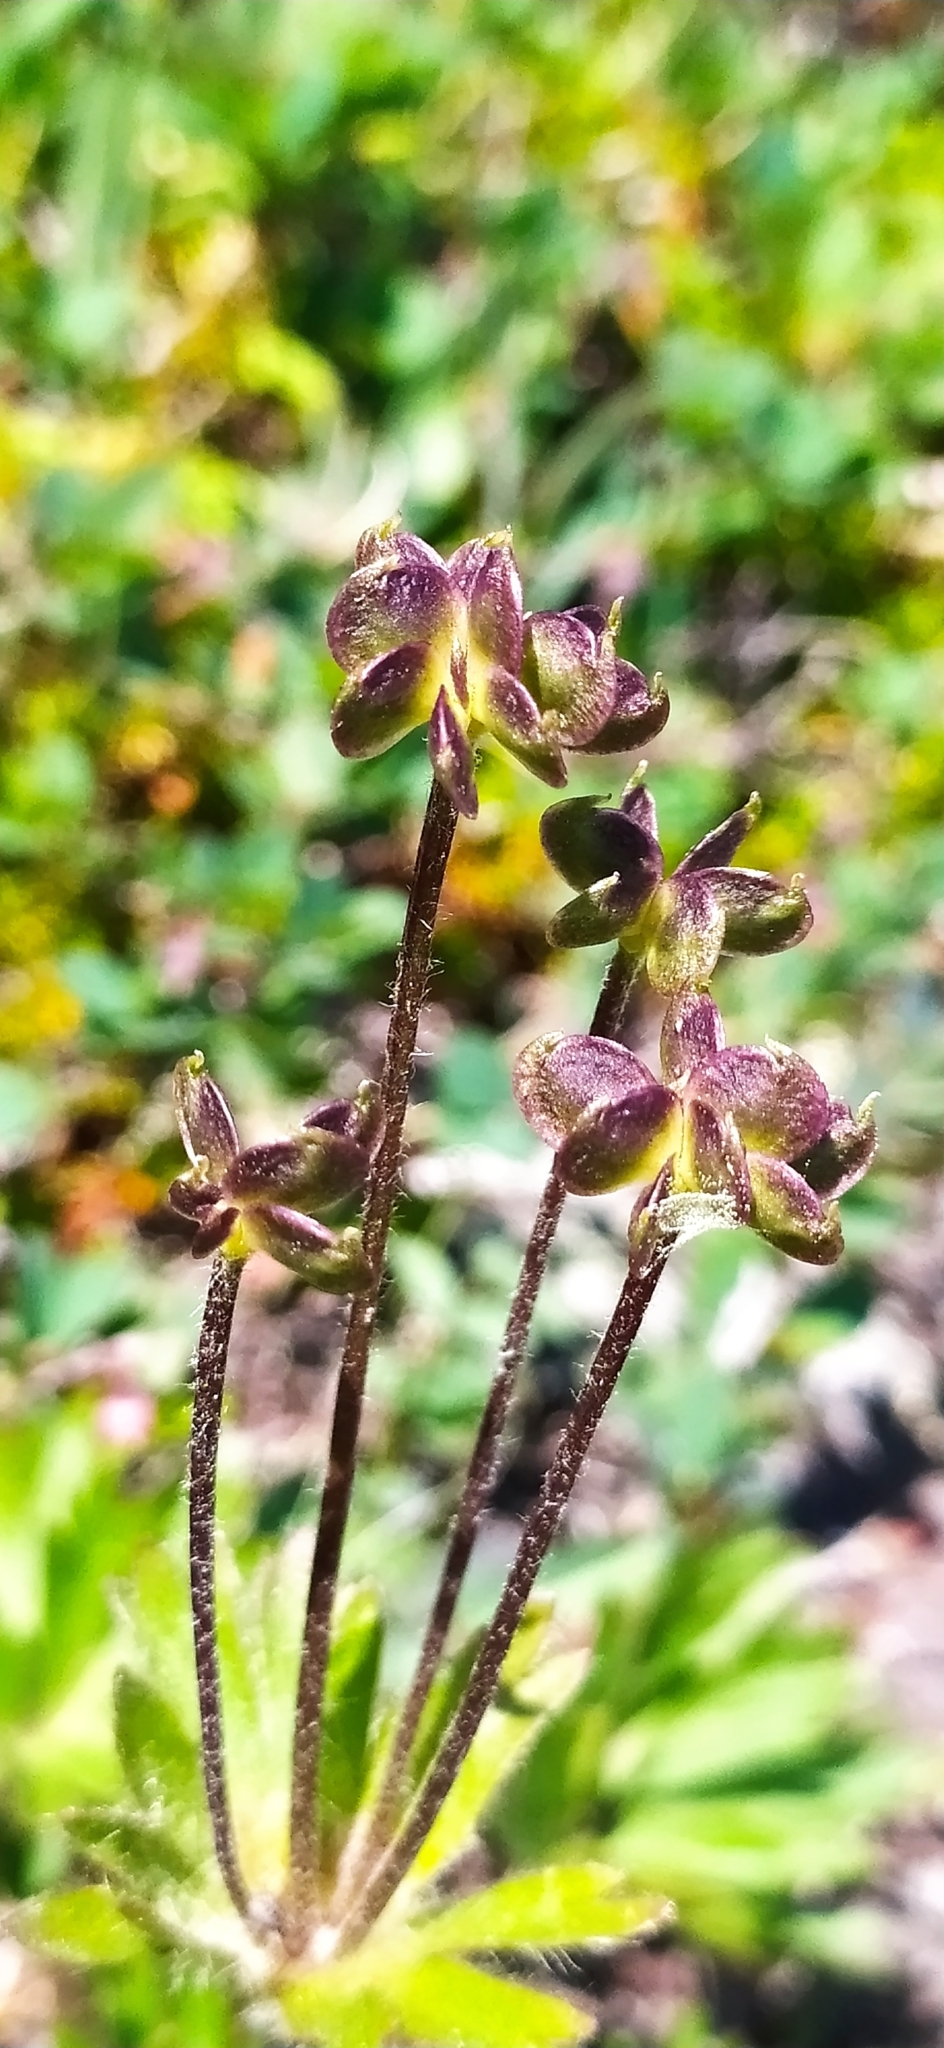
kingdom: Plantae
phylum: Tracheophyta
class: Magnoliopsida
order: Ranunculales
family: Ranunculaceae
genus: Anemonastrum
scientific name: Anemonastrum biarmiense
